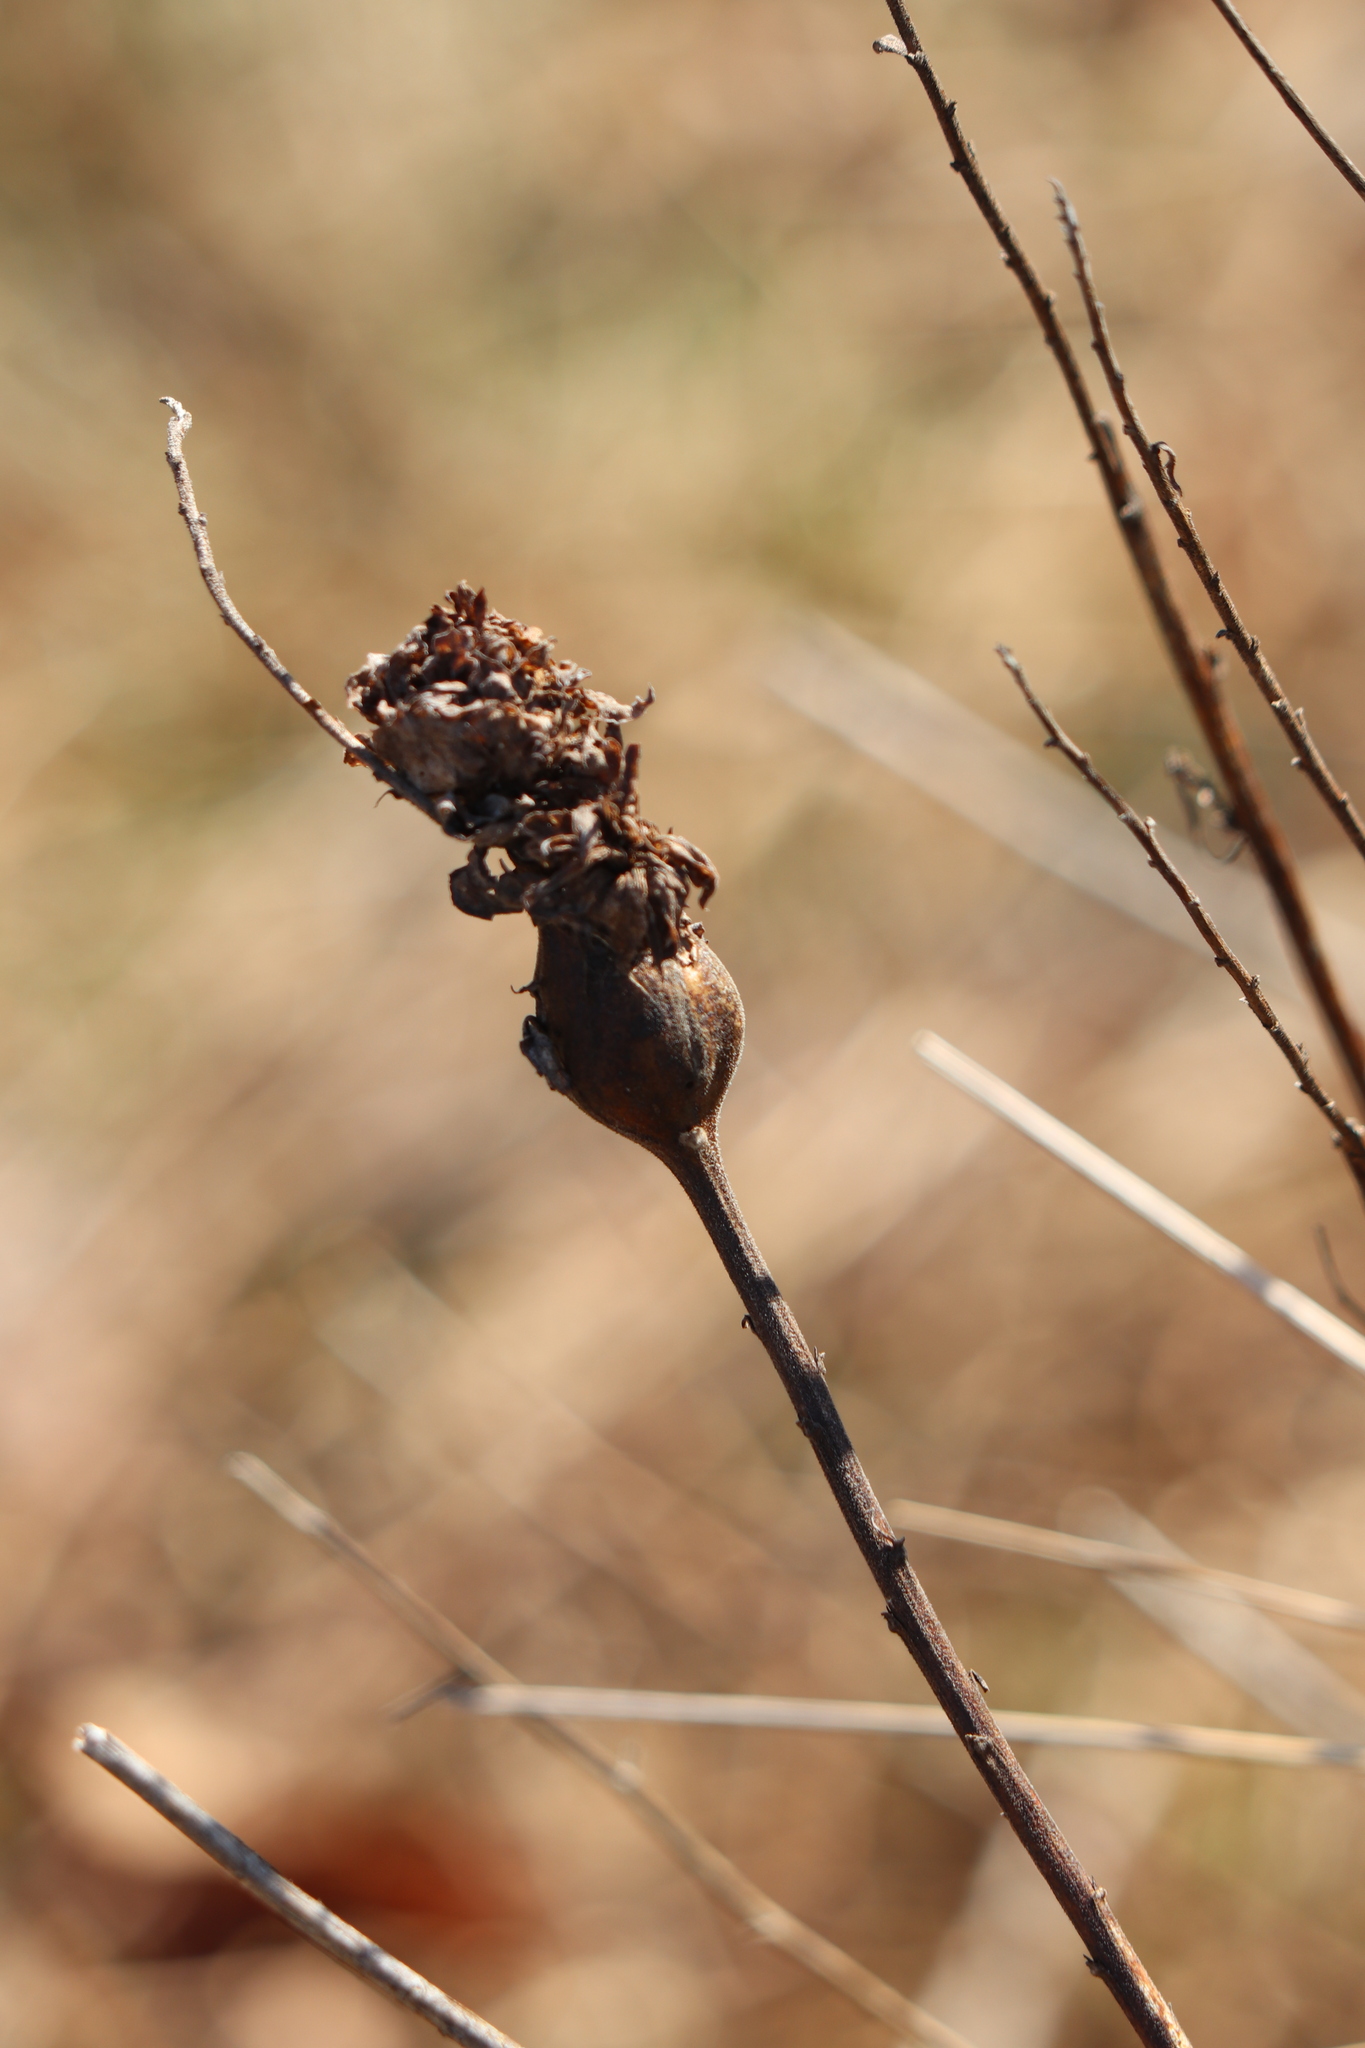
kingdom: Animalia
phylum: Arthropoda
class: Insecta
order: Diptera
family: Tephritidae
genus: Eurosta
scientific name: Eurosta solidaginis
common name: Goldenrod gall fly
